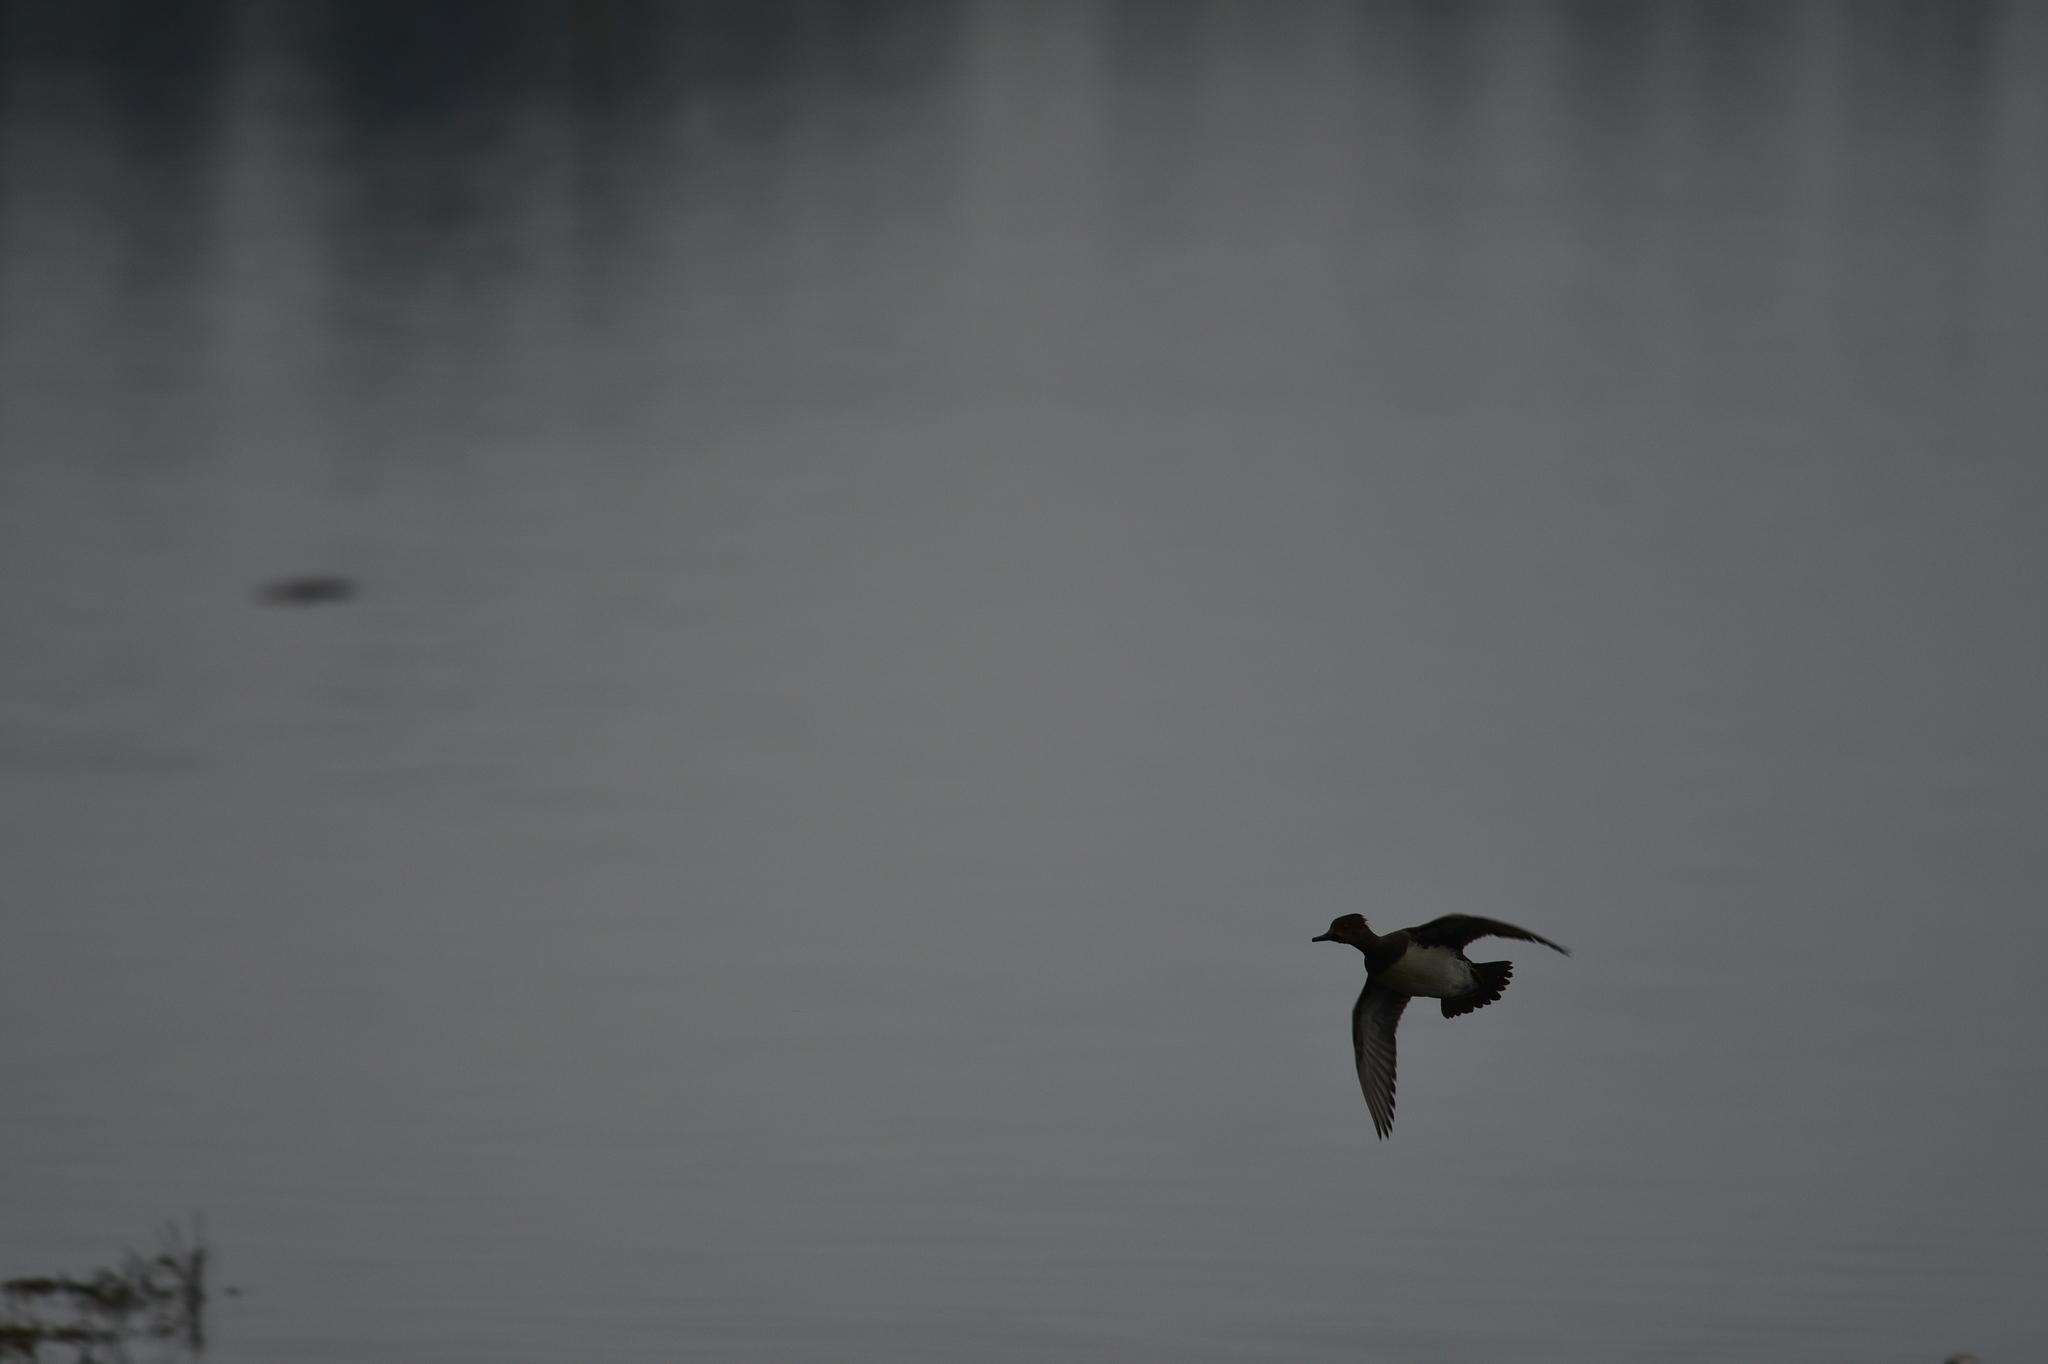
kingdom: Animalia
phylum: Chordata
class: Aves
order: Anseriformes
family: Anatidae
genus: Lophodytes
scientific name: Lophodytes cucullatus
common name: Hooded merganser
